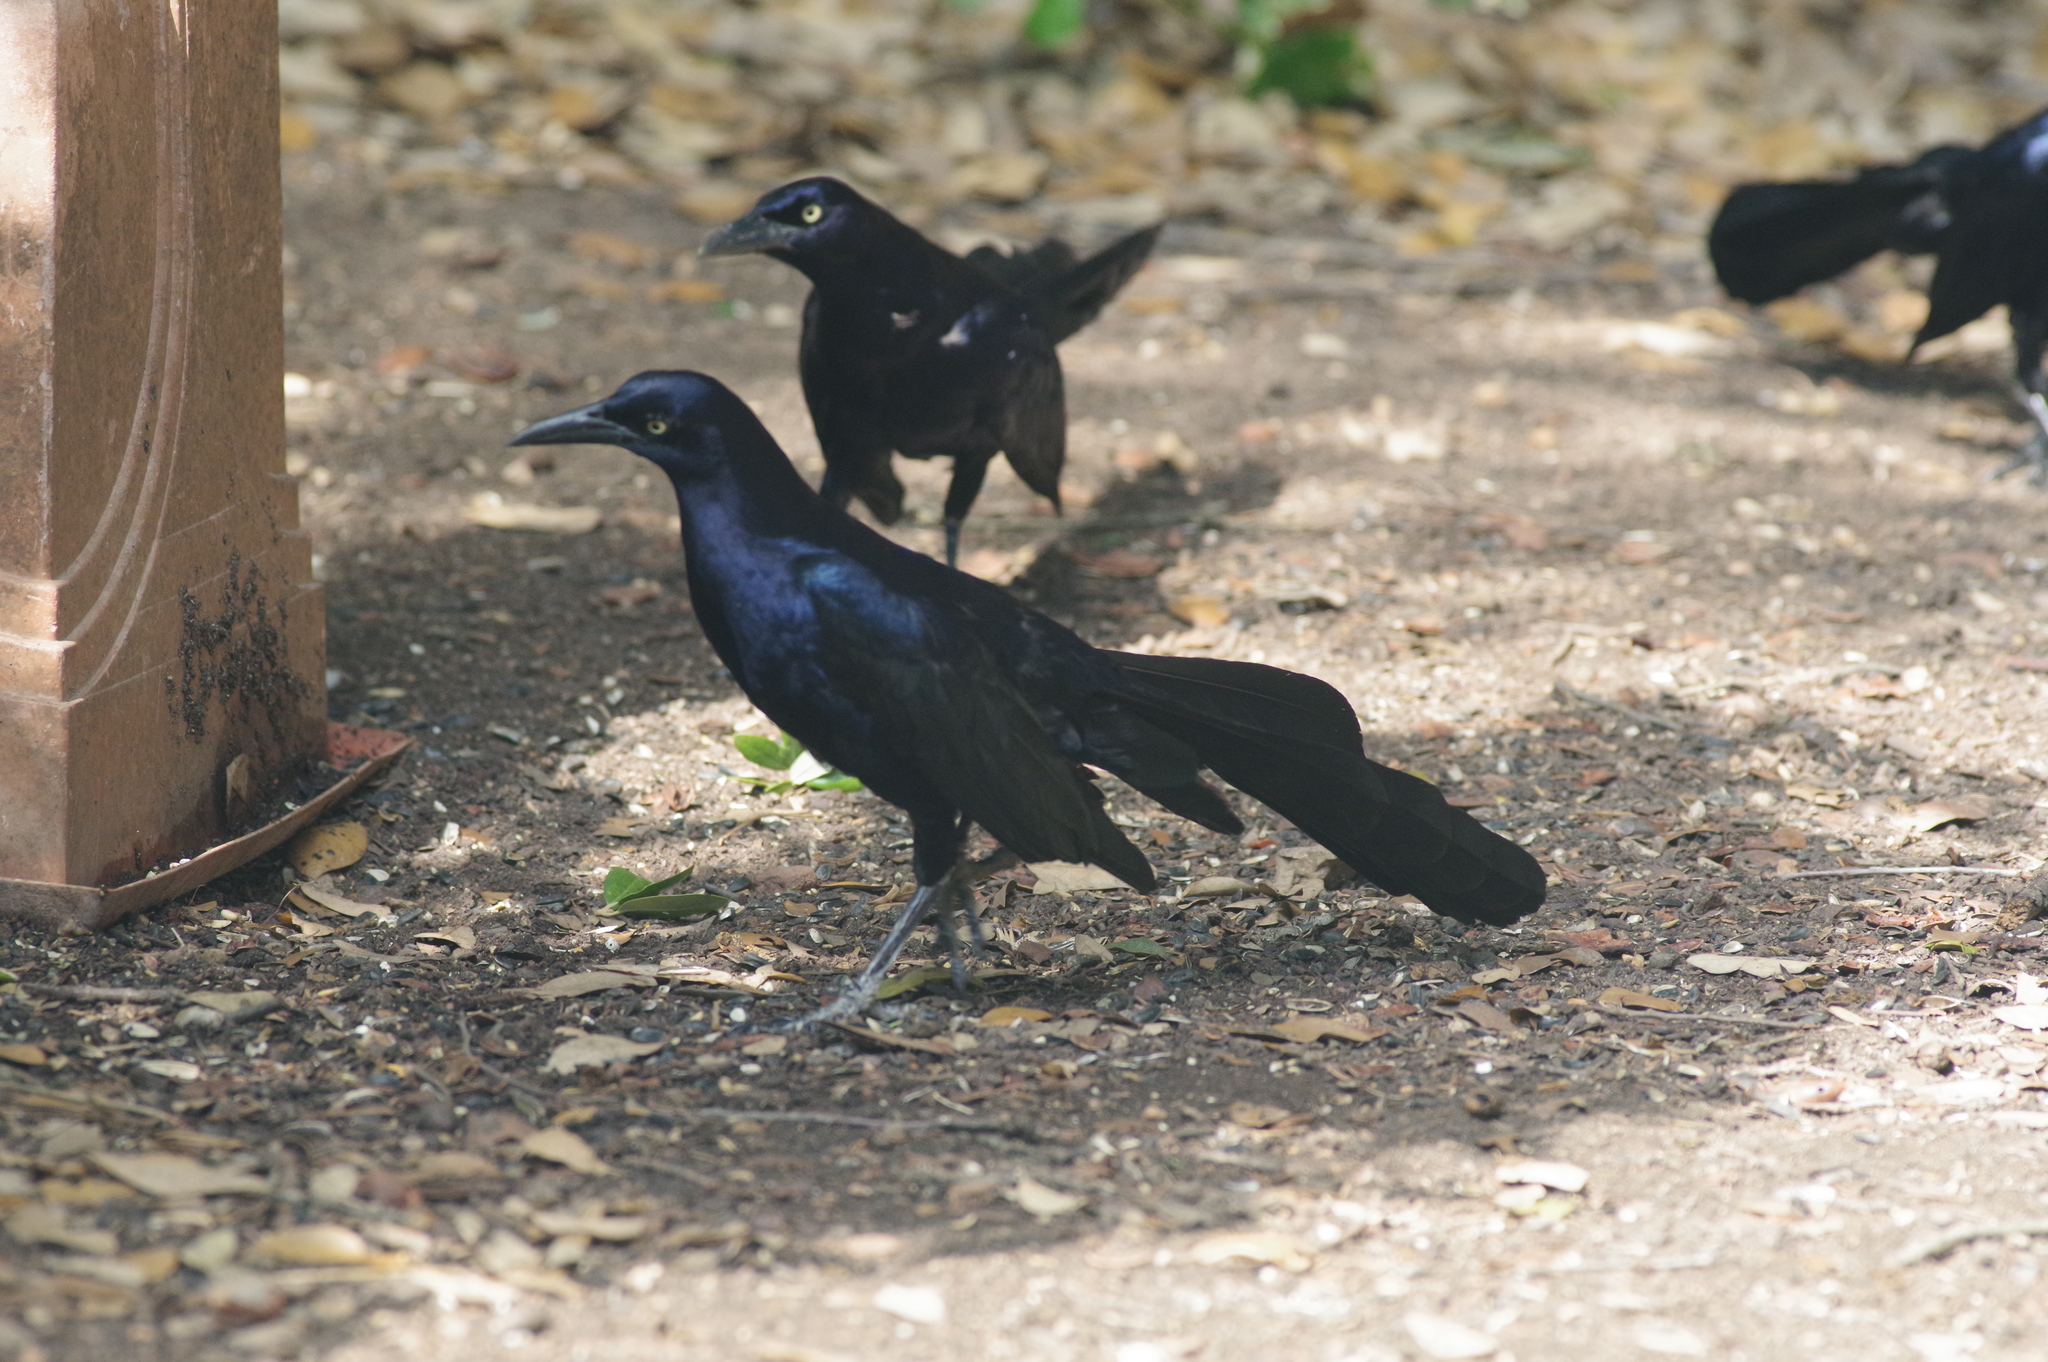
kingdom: Animalia
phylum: Chordata
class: Aves
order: Passeriformes
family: Icteridae
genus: Quiscalus
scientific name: Quiscalus mexicanus
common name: Great-tailed grackle
